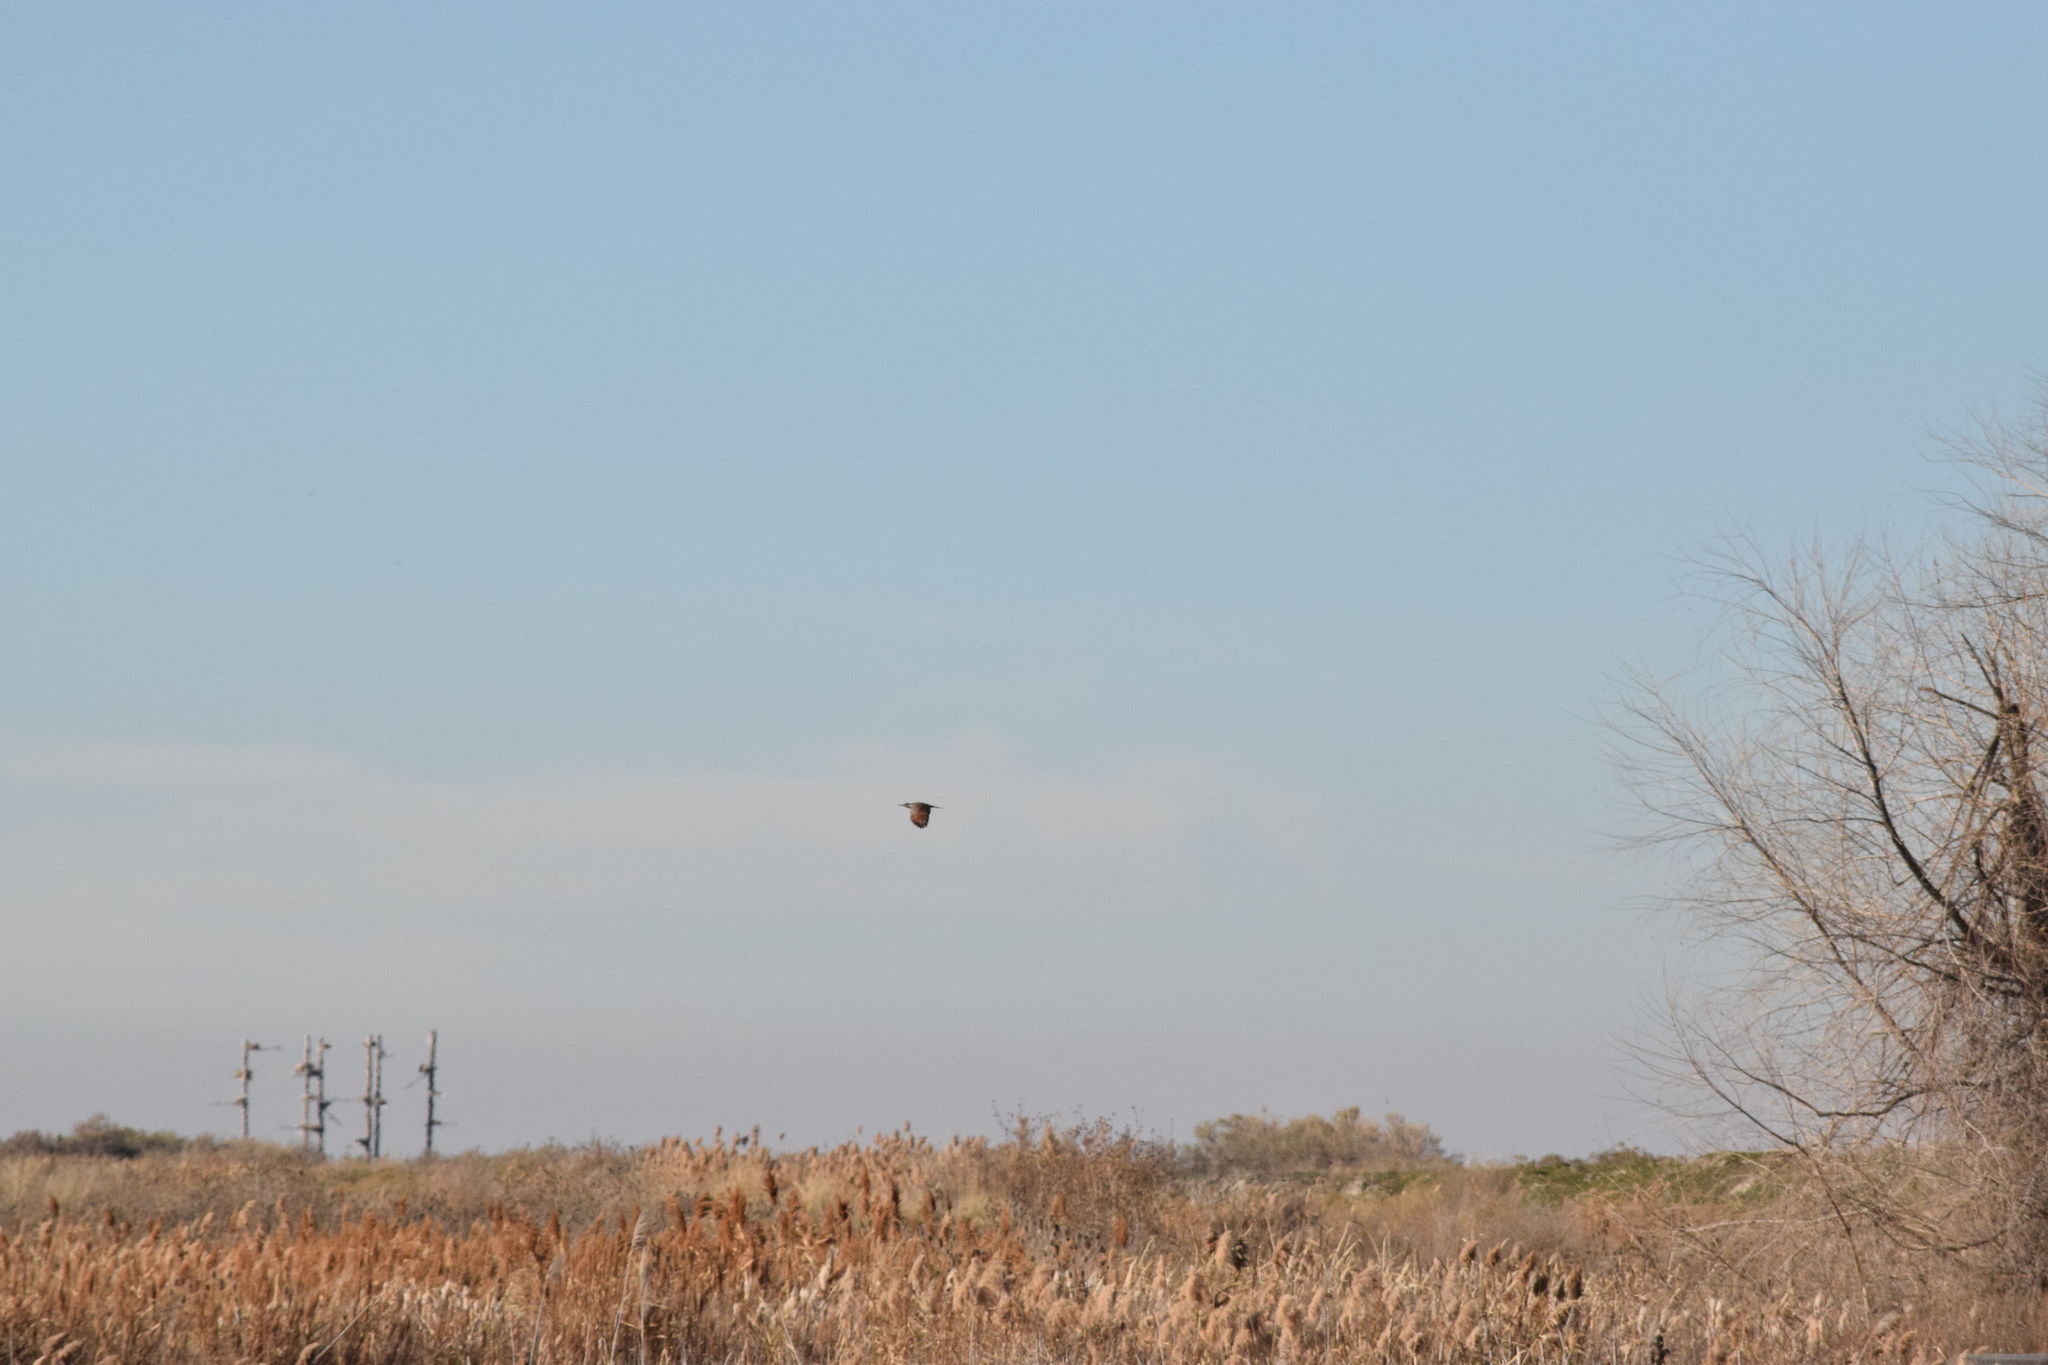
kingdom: Animalia
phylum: Chordata
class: Aves
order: Piciformes
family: Picidae
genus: Colaptes
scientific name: Colaptes auratus
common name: Northern flicker
